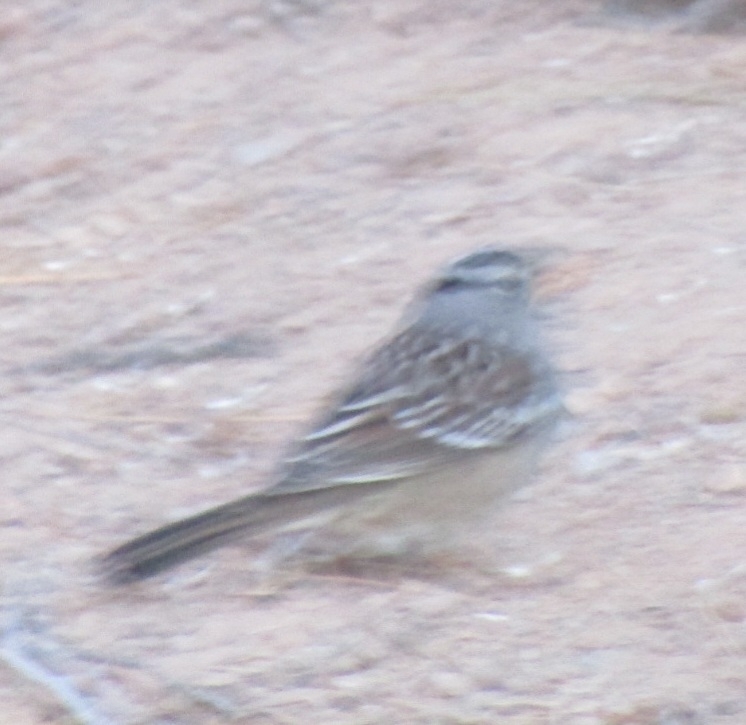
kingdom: Animalia
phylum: Chordata
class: Aves
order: Passeriformes
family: Passerellidae
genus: Zonotrichia
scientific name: Zonotrichia leucophrys
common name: White-crowned sparrow
